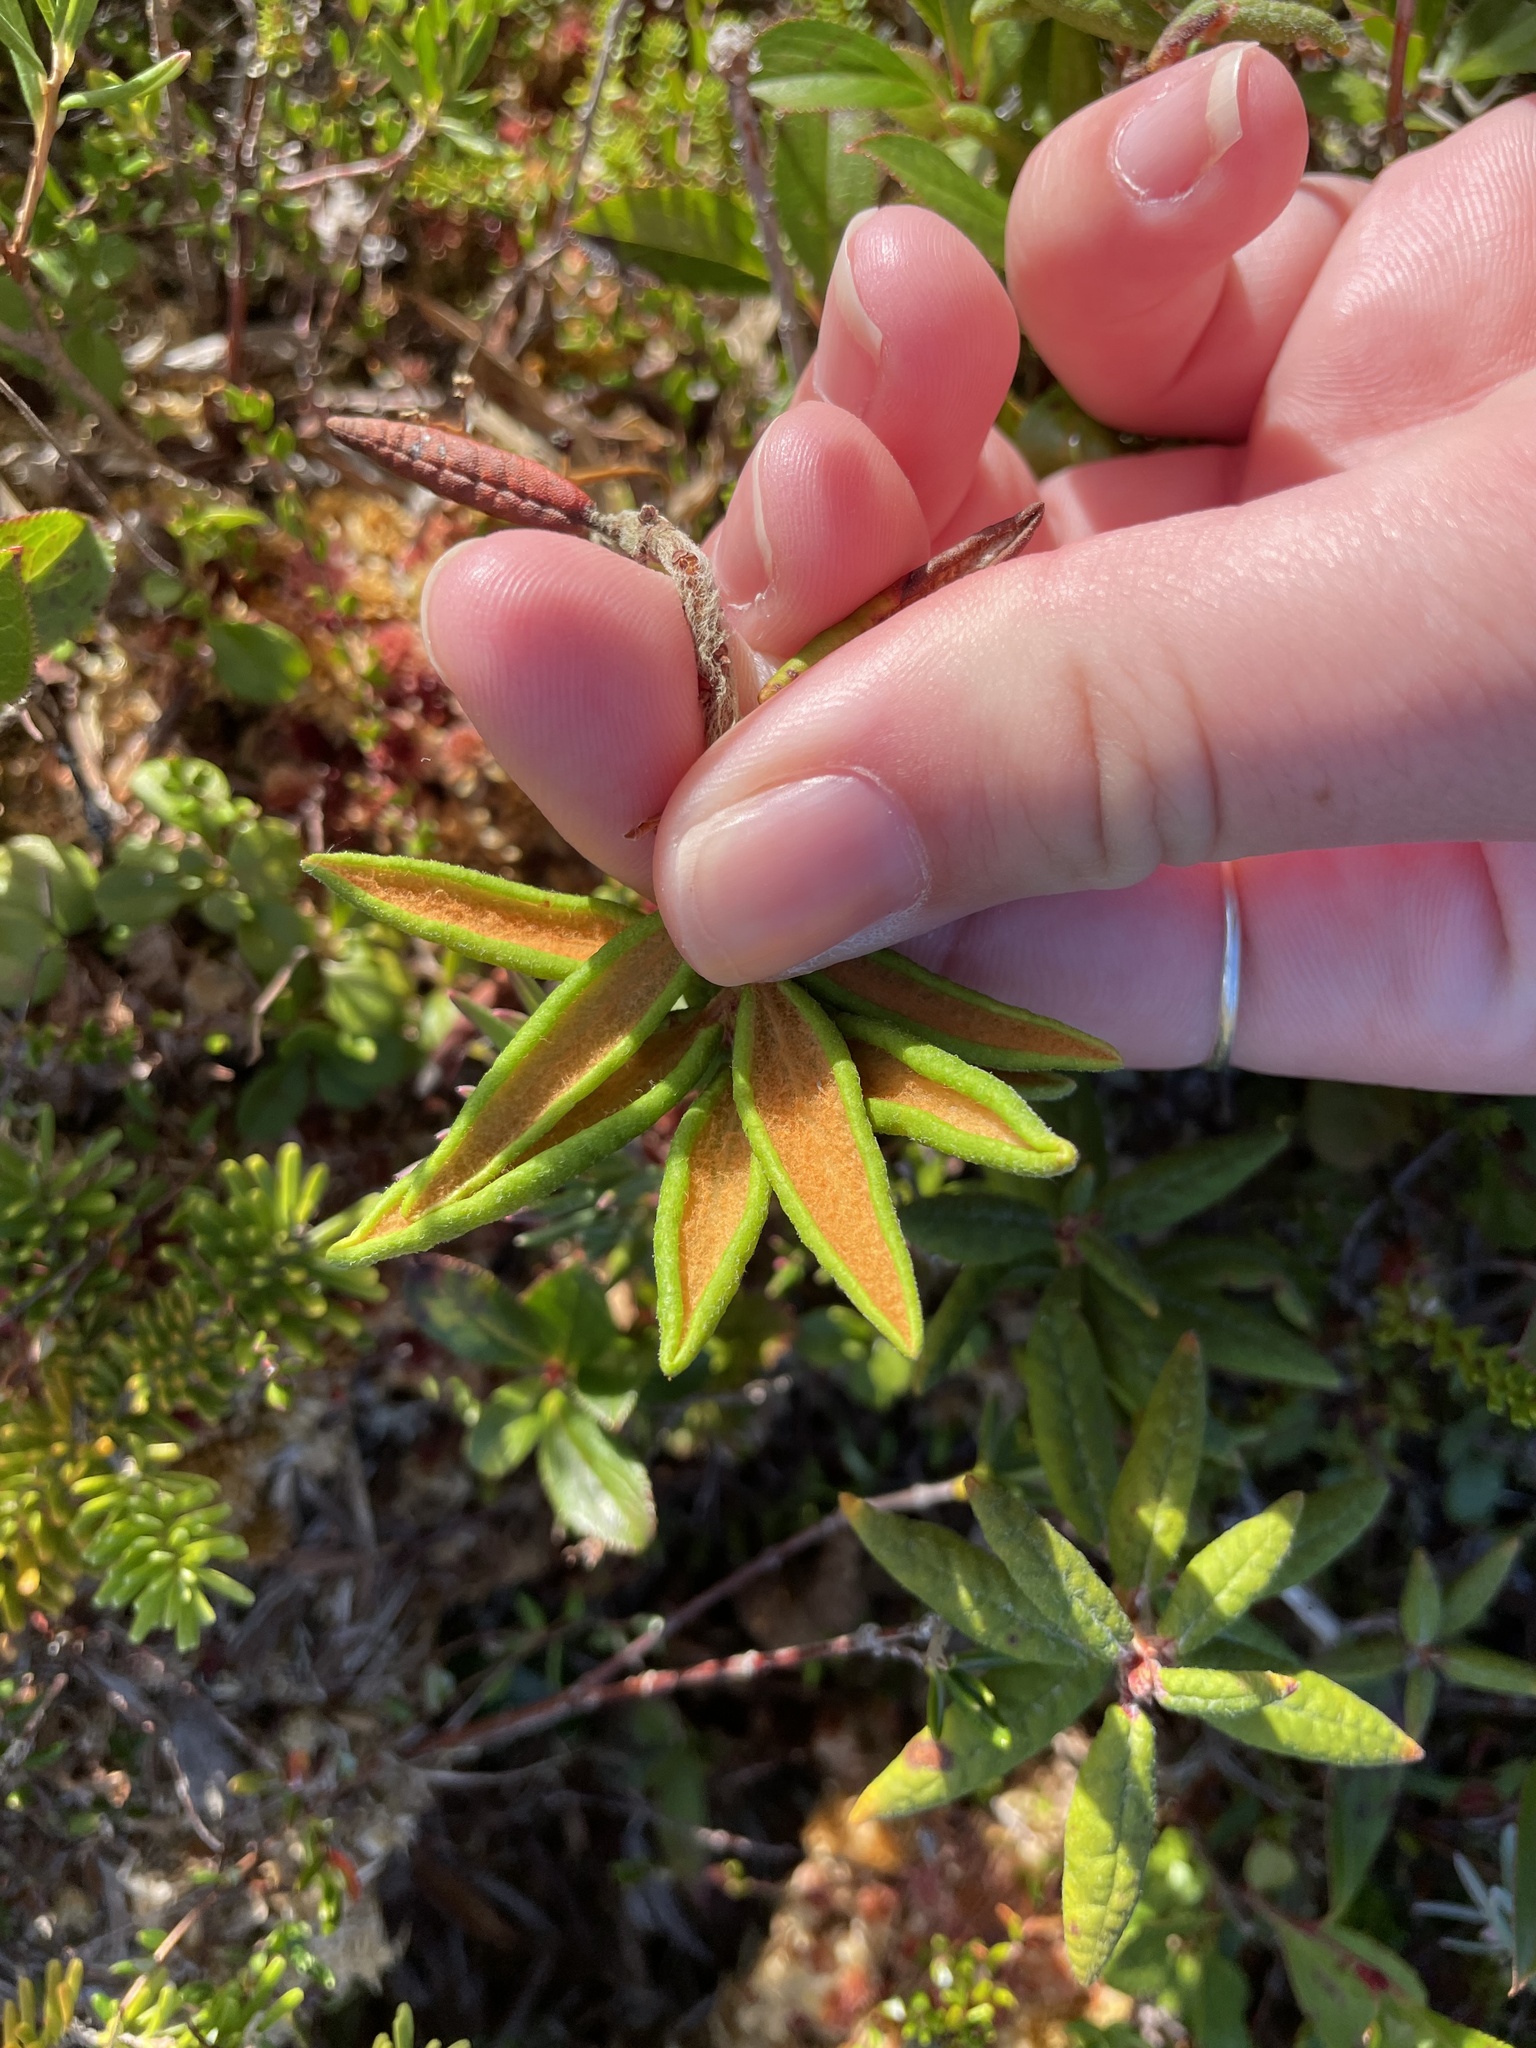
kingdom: Plantae
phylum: Tracheophyta
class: Magnoliopsida
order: Ericales
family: Ericaceae
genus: Rhododendron
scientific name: Rhododendron groenlandicum
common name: Bog labrador tea
